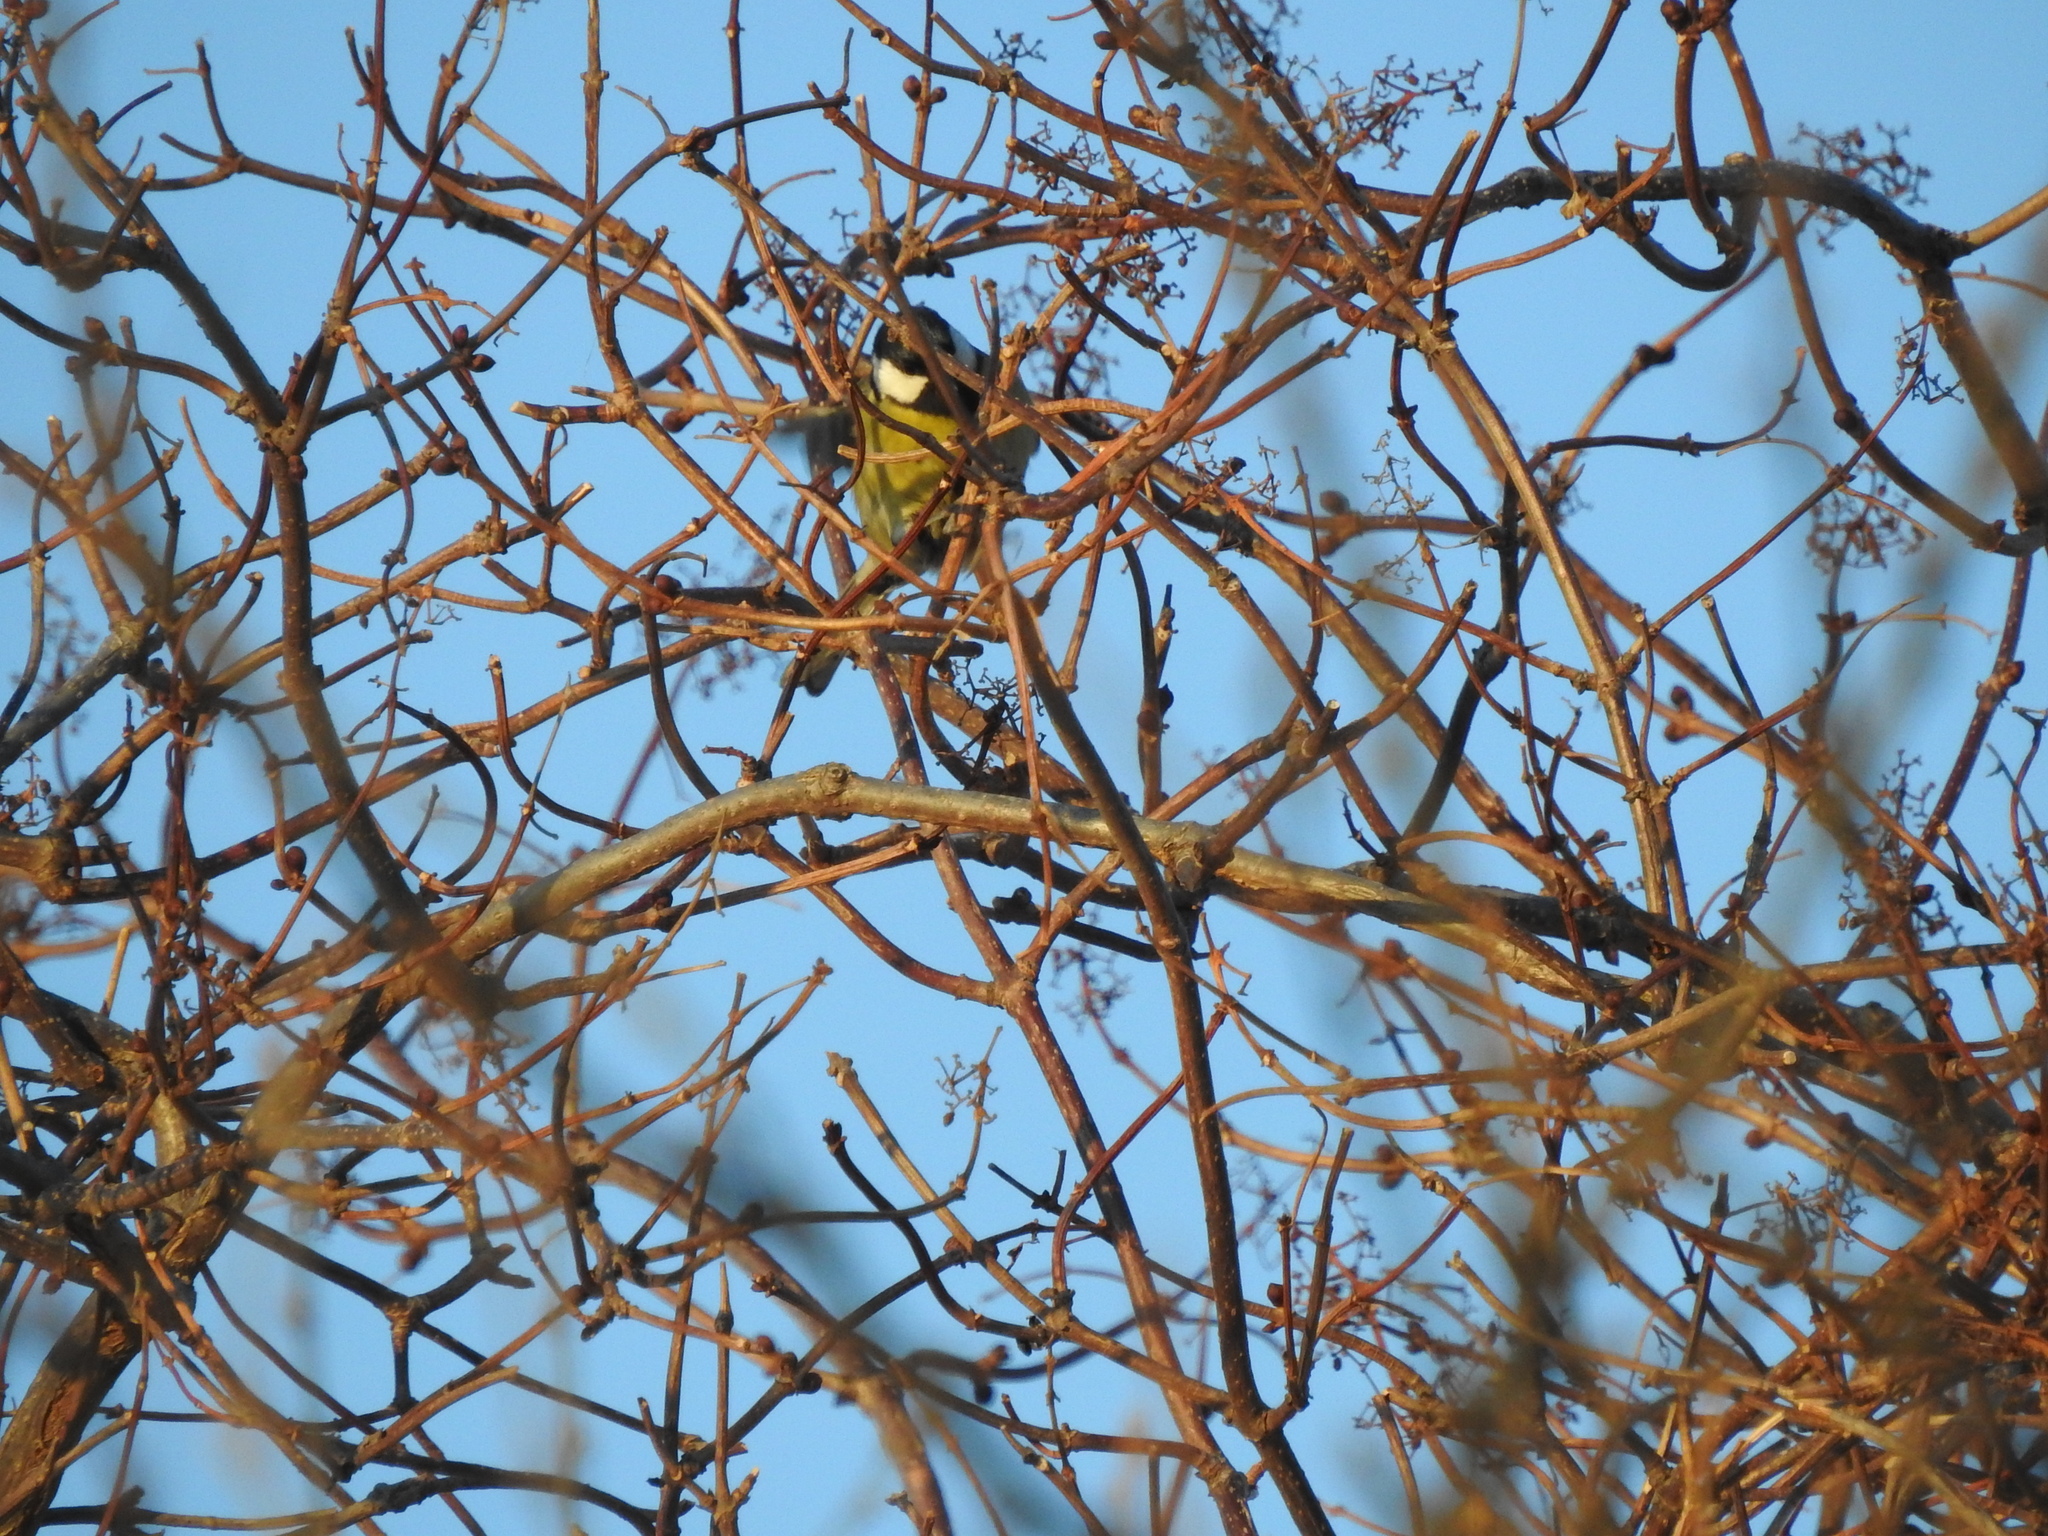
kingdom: Animalia
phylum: Chordata
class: Aves
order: Passeriformes
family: Paridae
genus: Parus
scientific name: Parus major
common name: Great tit
